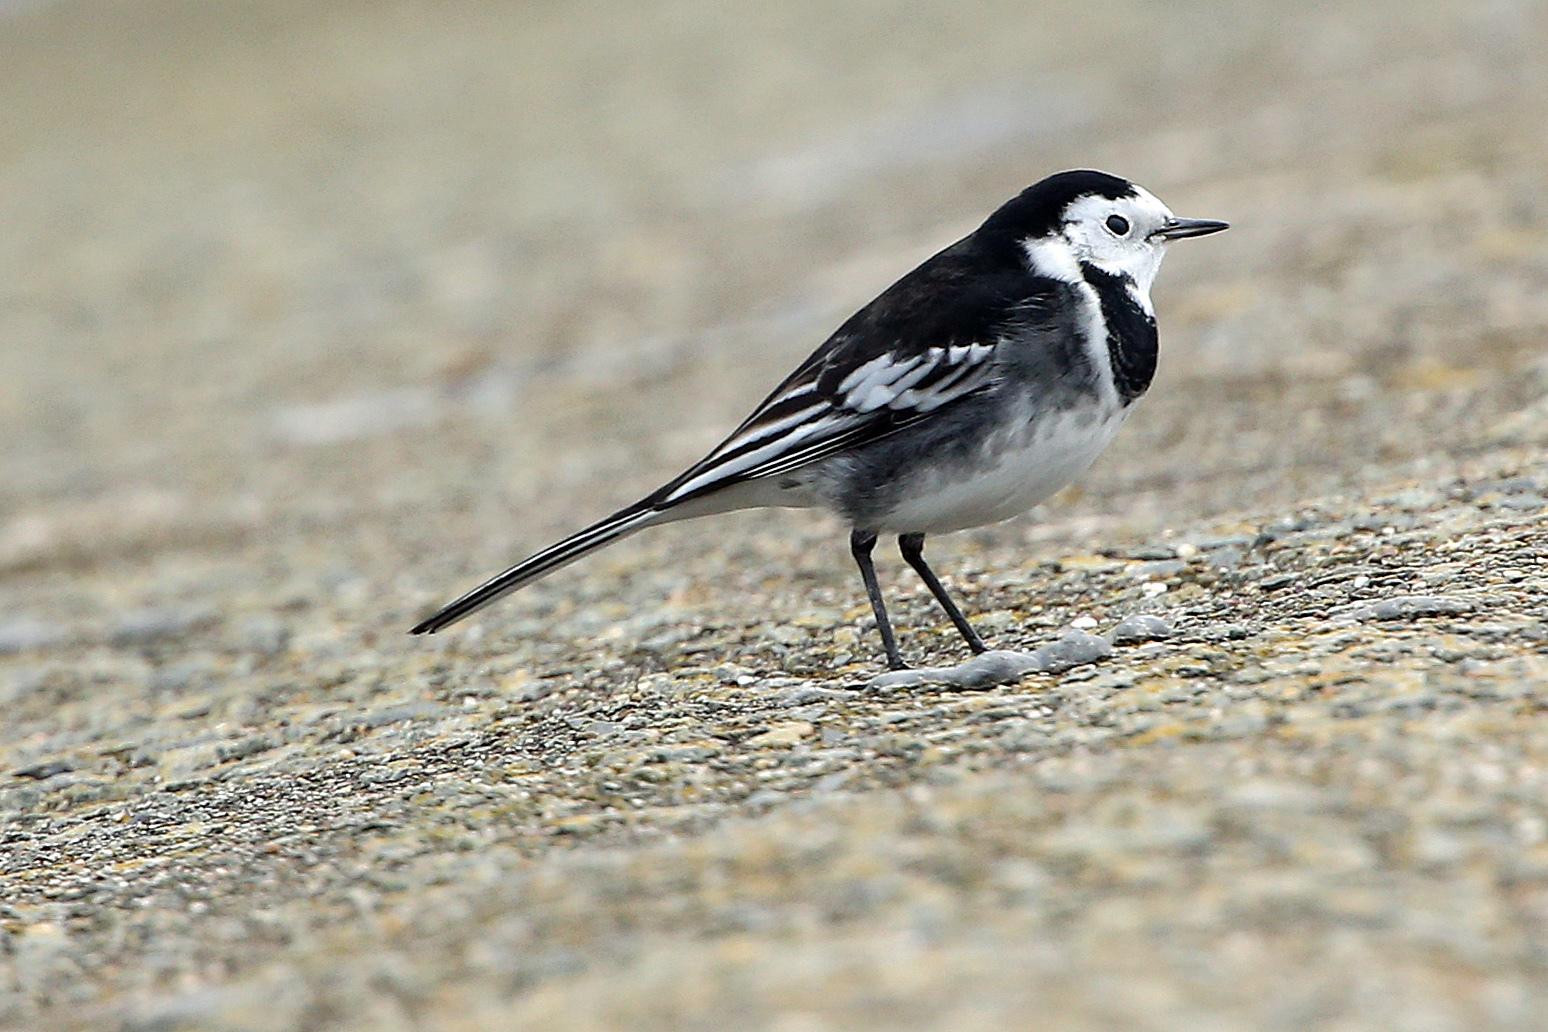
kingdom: Animalia
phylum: Chordata
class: Aves
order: Passeriformes
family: Motacillidae
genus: Motacilla
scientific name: Motacilla alba
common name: White wagtail
